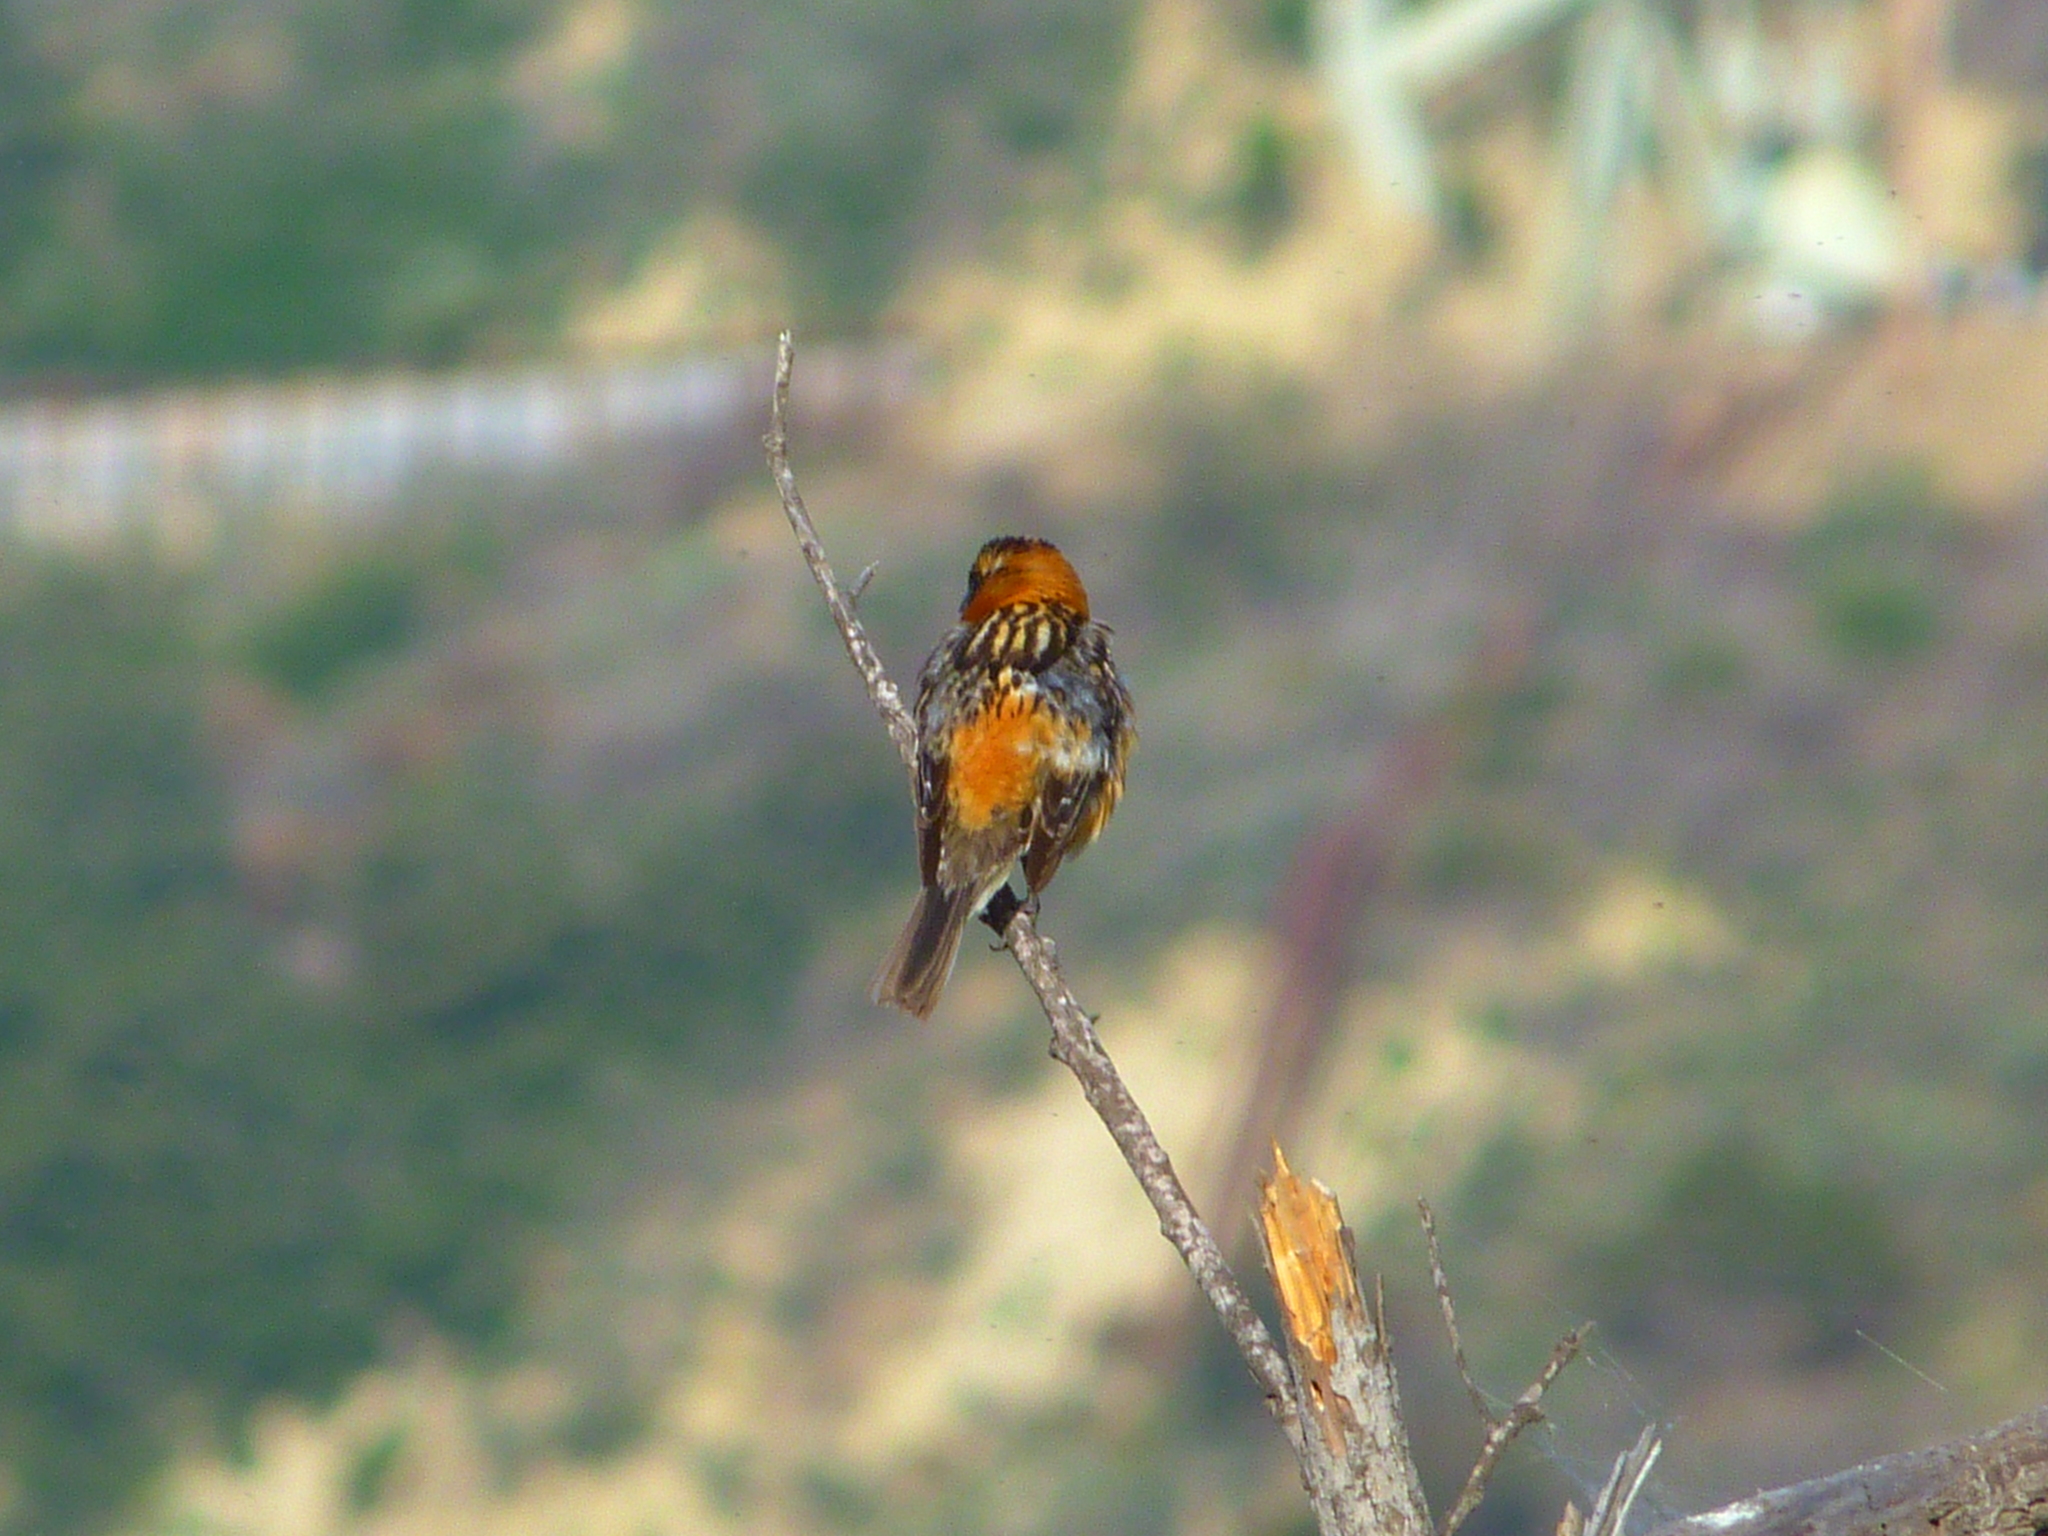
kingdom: Animalia
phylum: Chordata
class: Aves
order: Passeriformes
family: Cardinalidae
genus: Pheucticus
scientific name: Pheucticus melanocephalus
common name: Black-headed grosbeak
